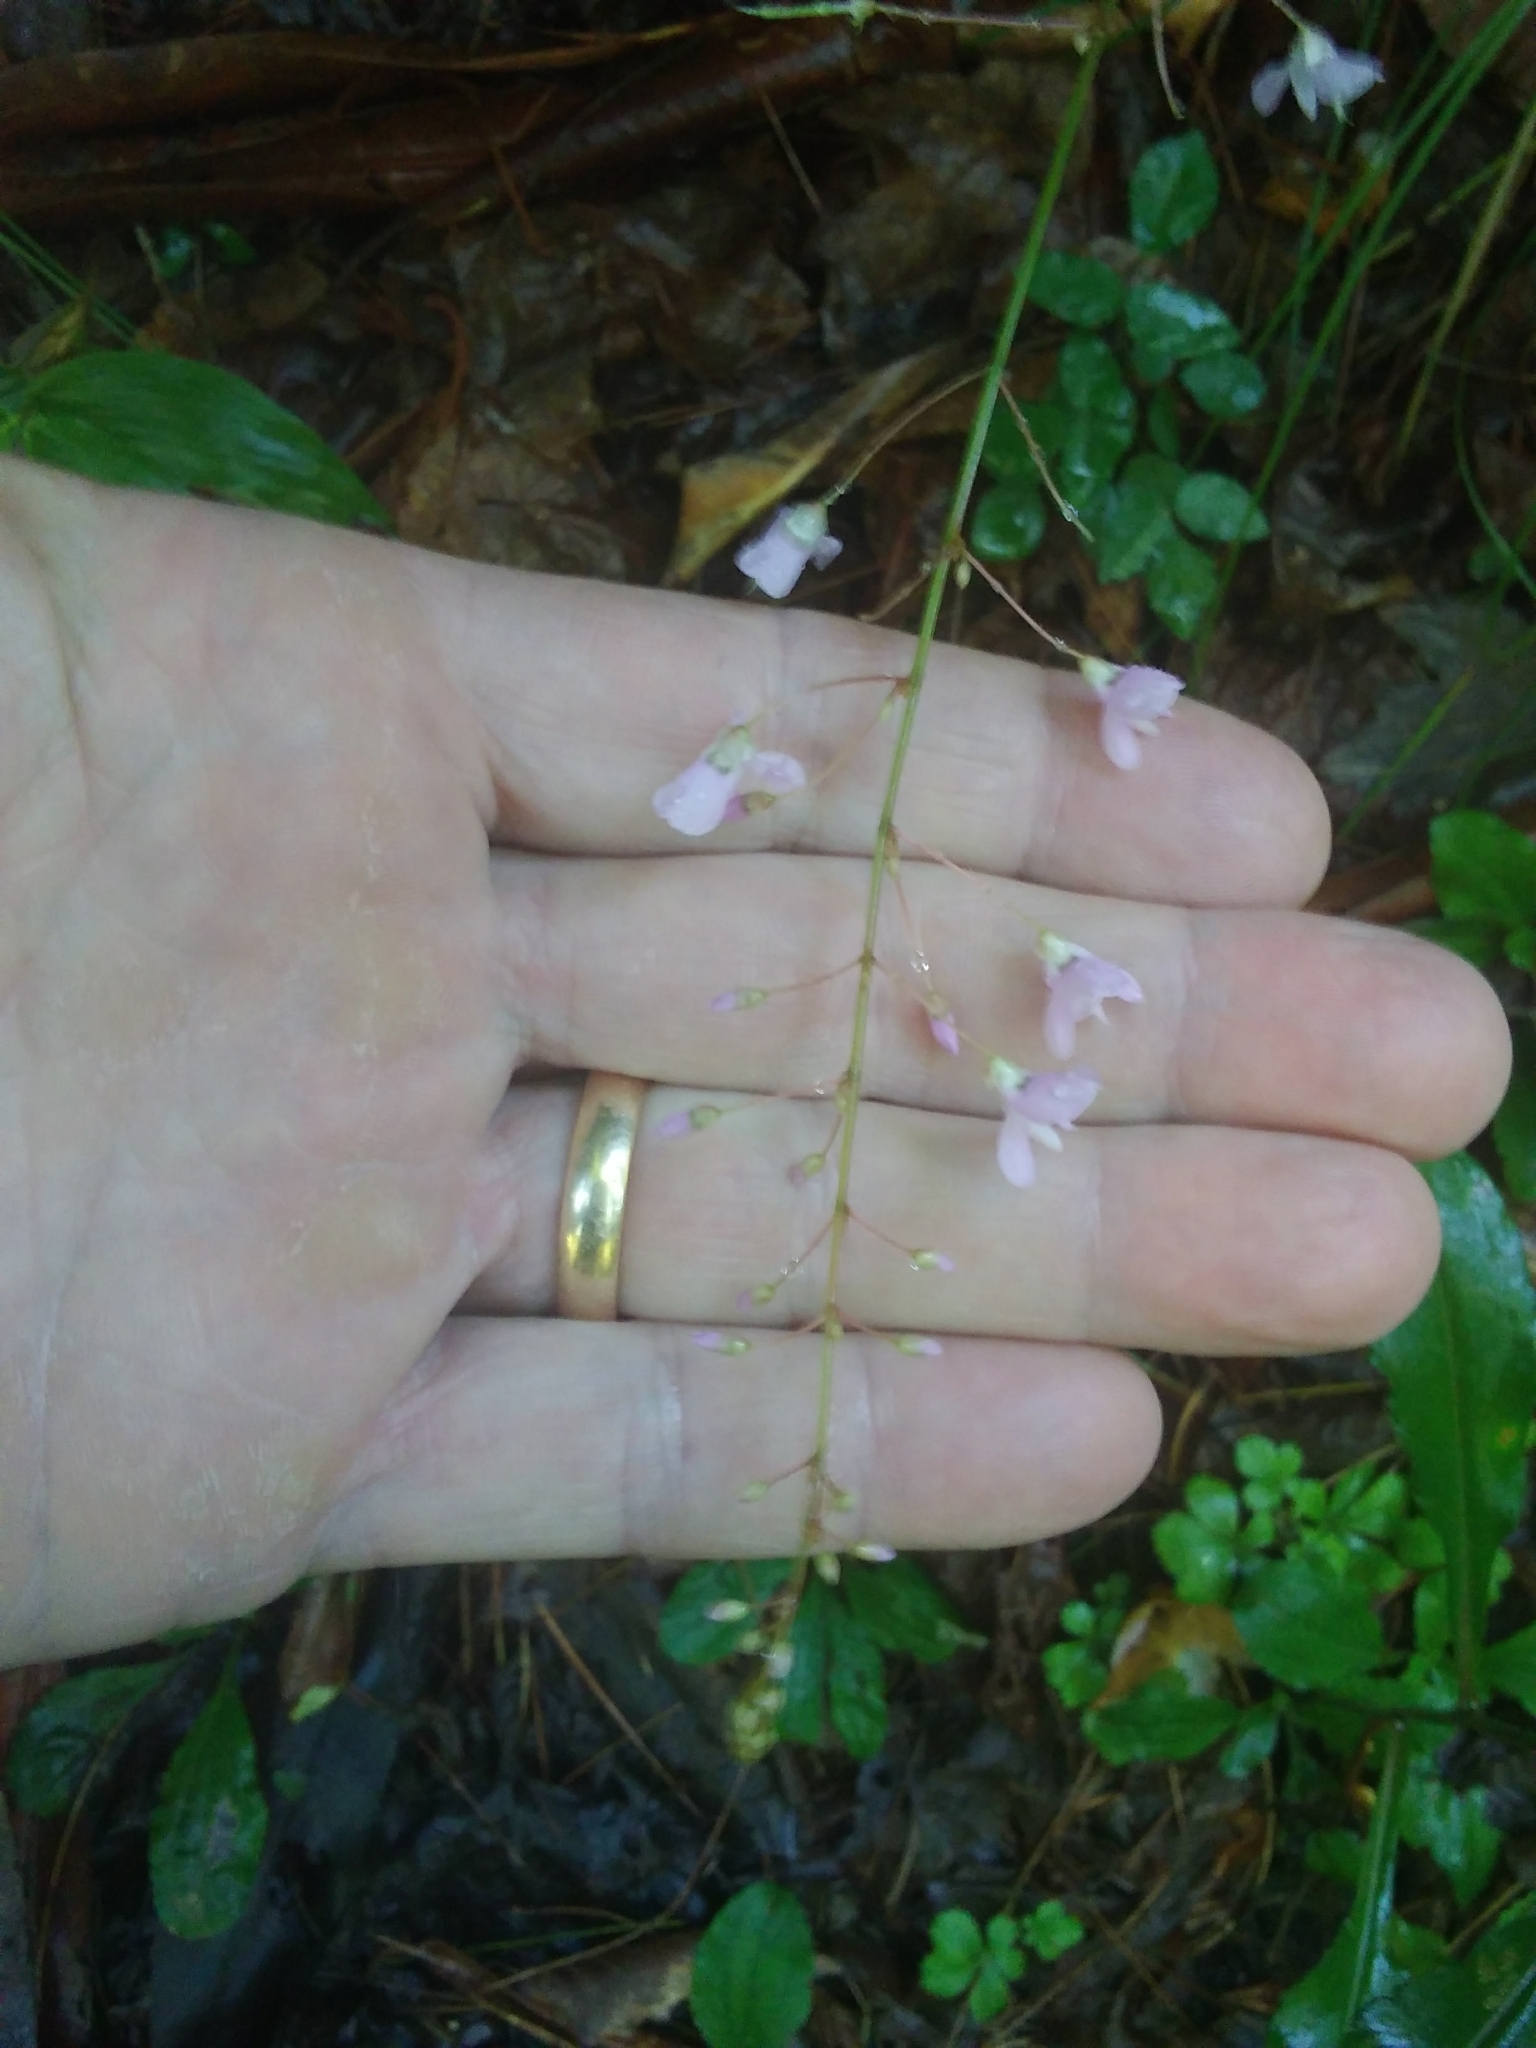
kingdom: Plantae
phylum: Tracheophyta
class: Magnoliopsida
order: Fabales
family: Fabaceae
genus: Hylodesmum
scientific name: Hylodesmum nudiflorum
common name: Bare-stemmed tick-trefoil
